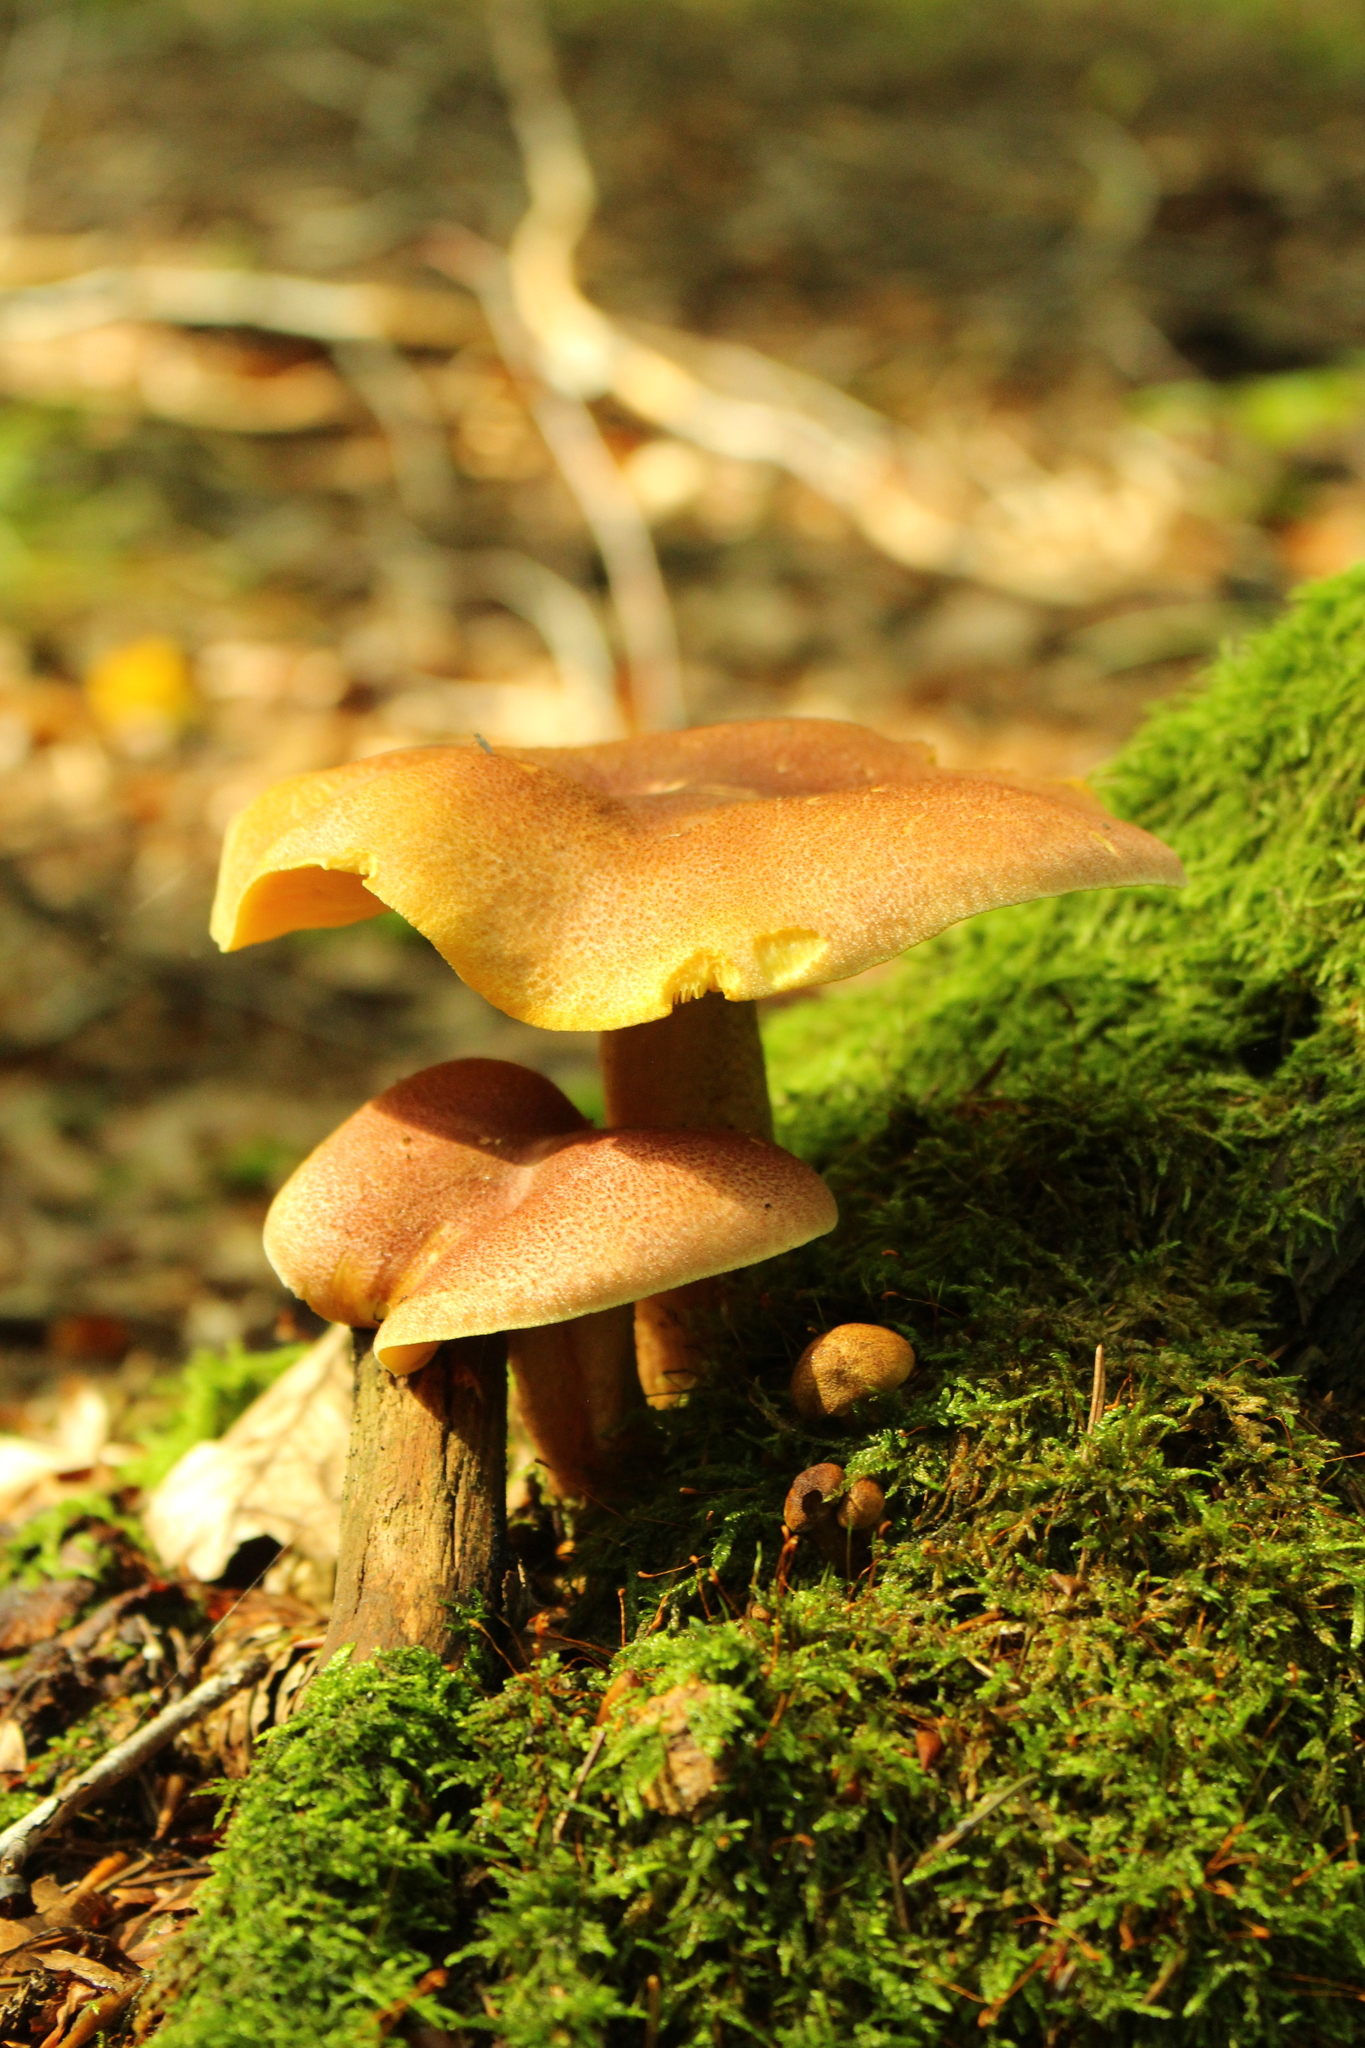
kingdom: Fungi
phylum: Basidiomycota
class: Agaricomycetes
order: Agaricales
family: Tricholomataceae
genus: Tricholomopsis
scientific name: Tricholomopsis rutilans
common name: Plums and custard
